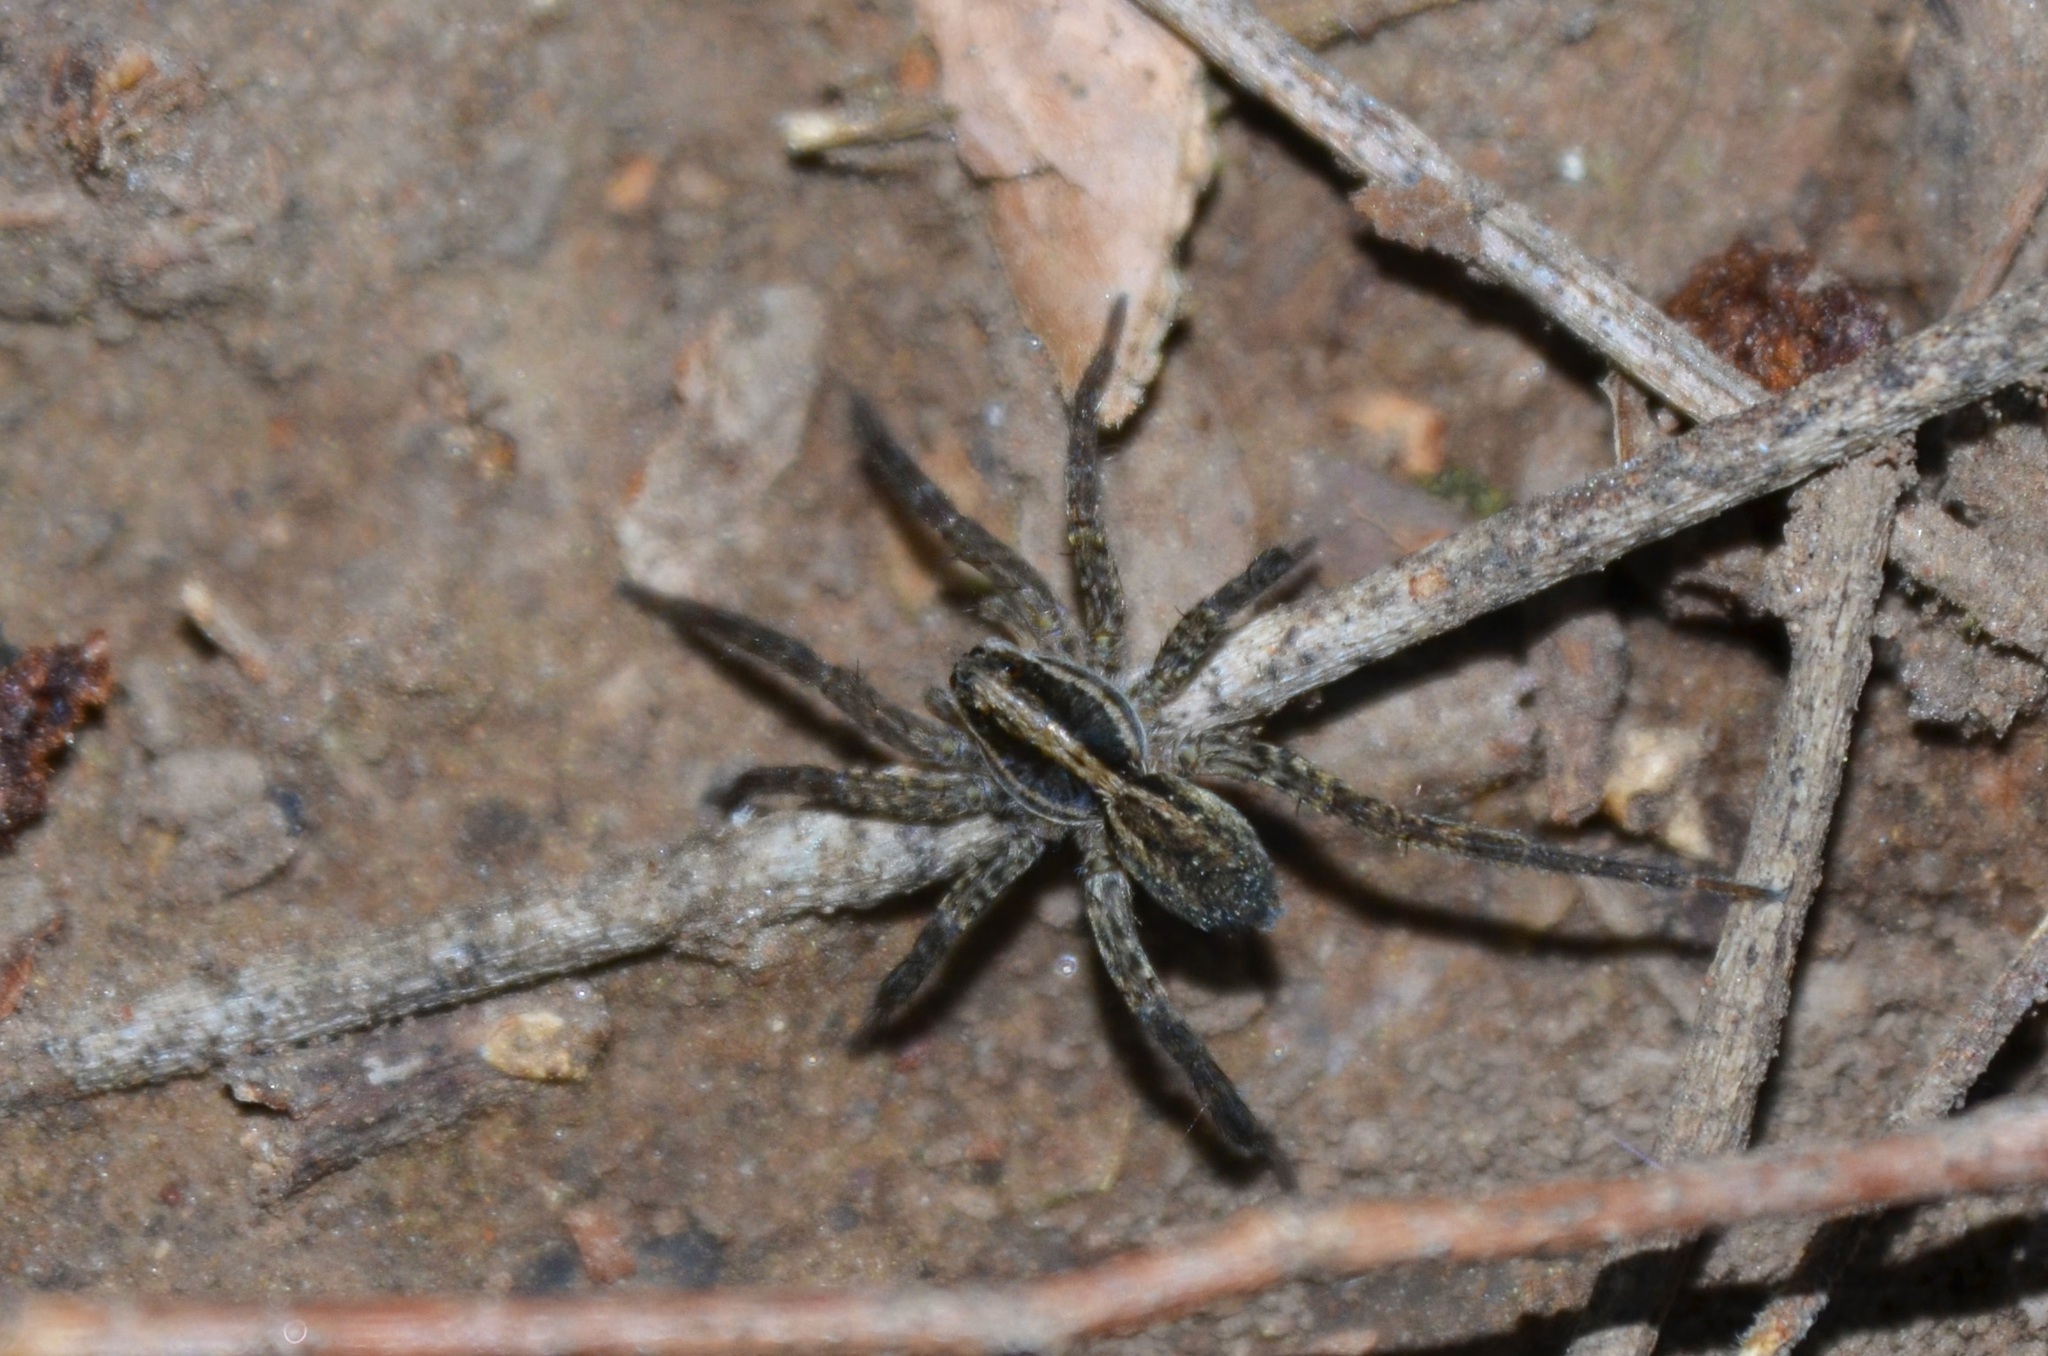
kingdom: Animalia
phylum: Arthropoda
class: Arachnida
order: Araneae
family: Lycosidae
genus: Alopecosa
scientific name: Alopecosa moesta
